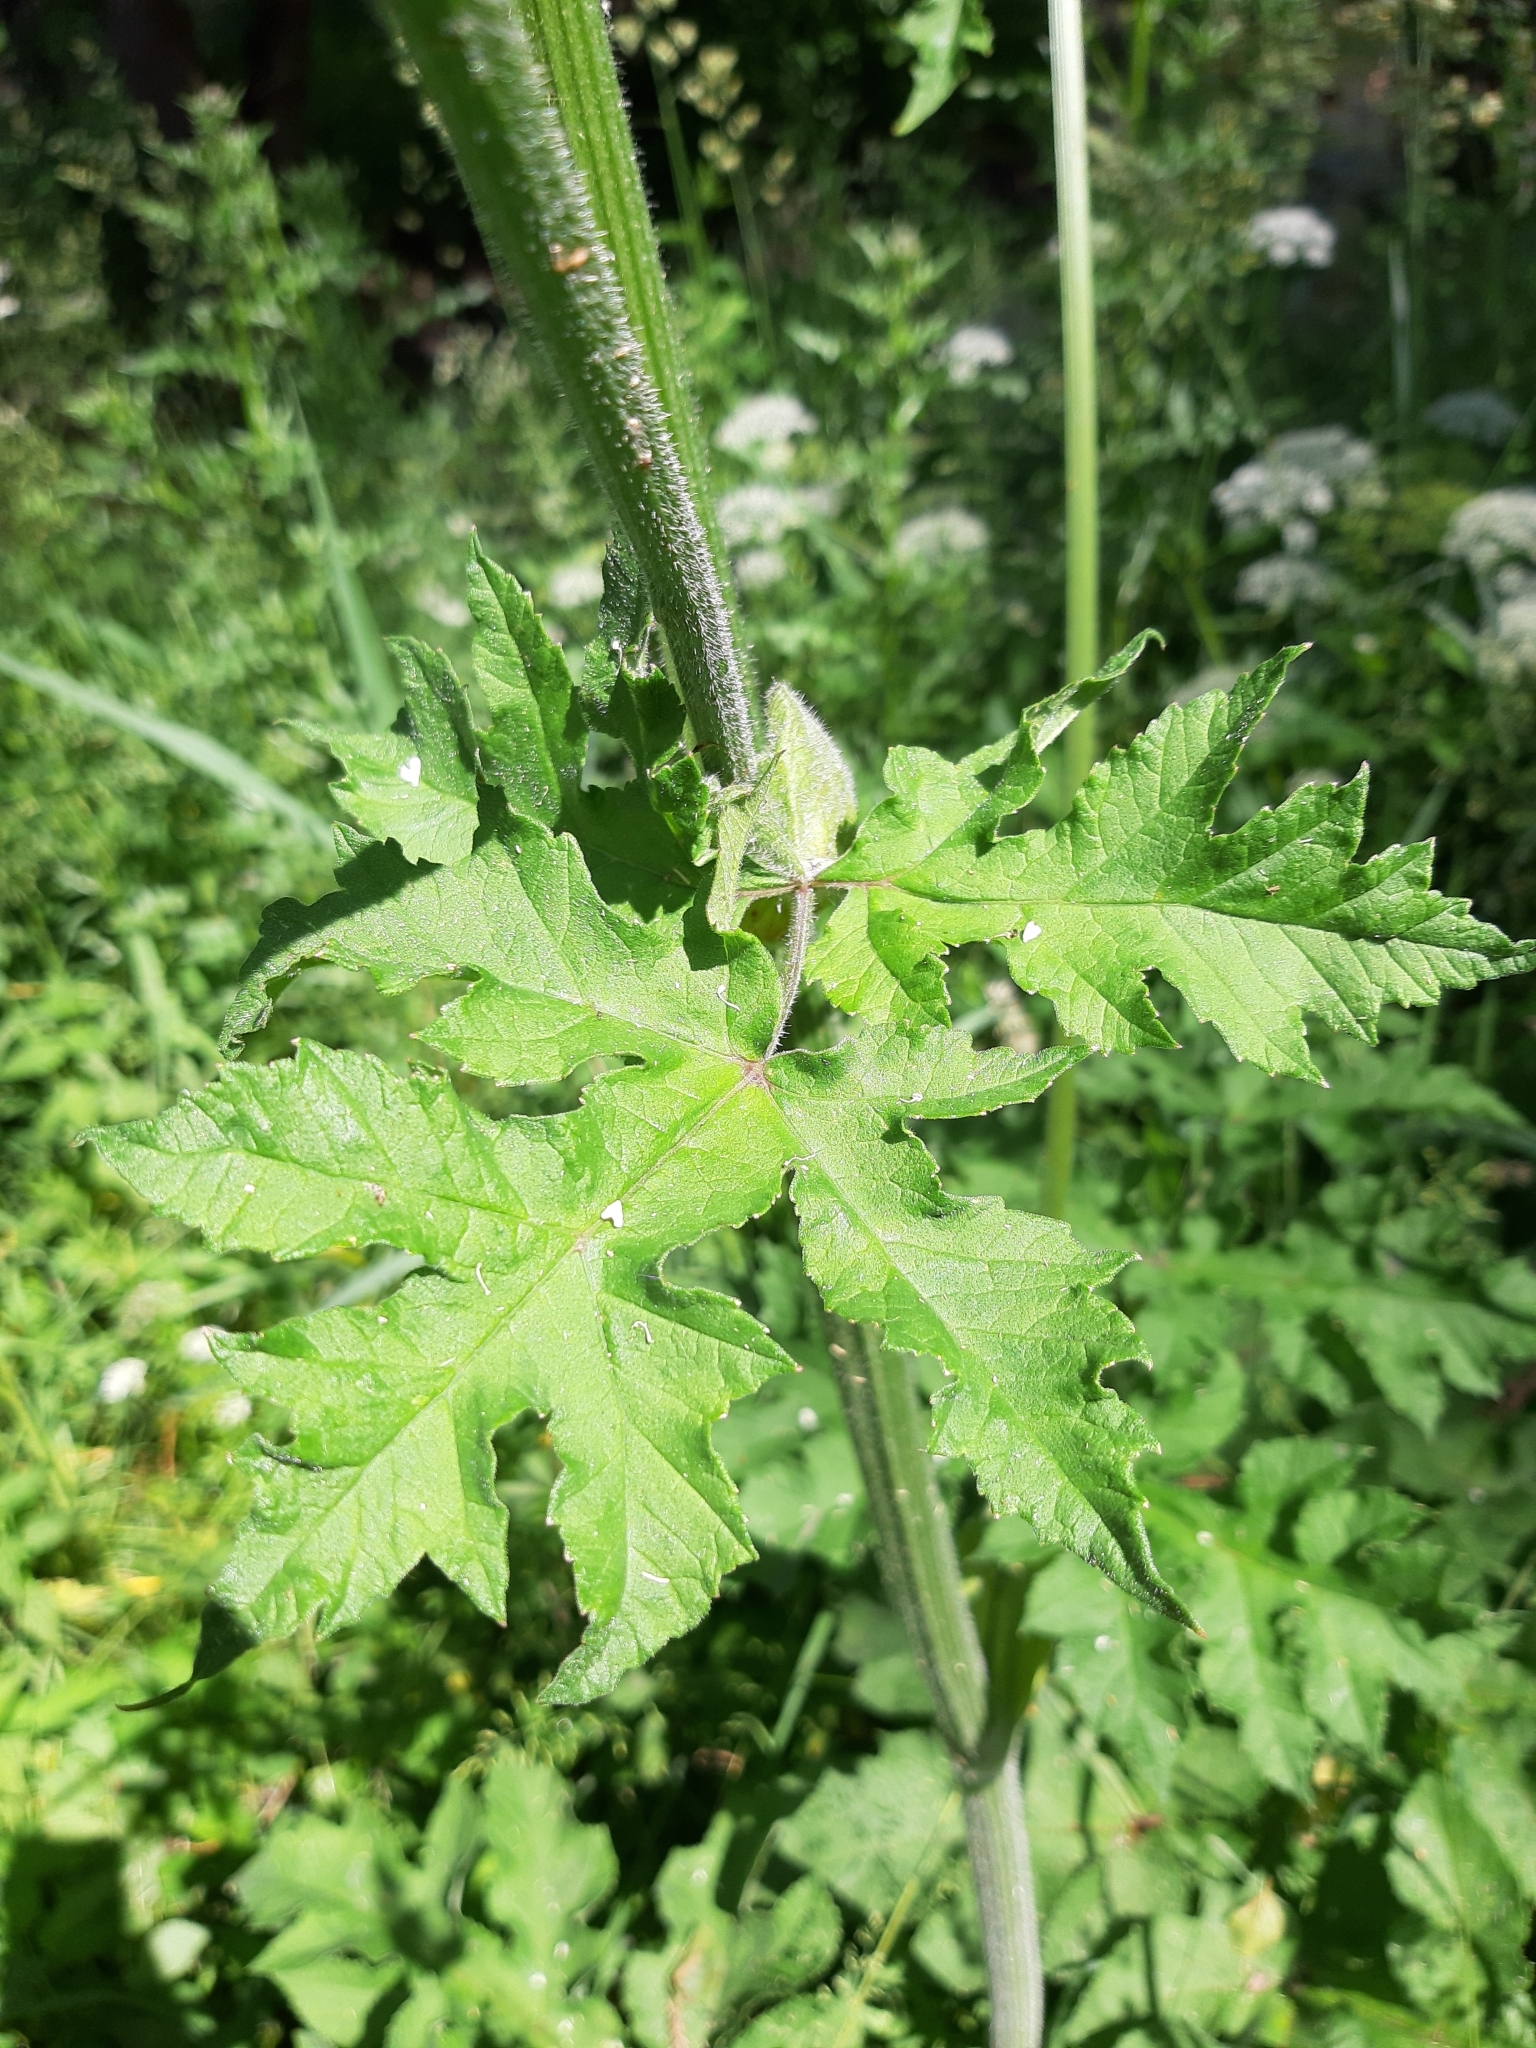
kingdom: Plantae
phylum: Tracheophyta
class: Magnoliopsida
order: Apiales
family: Apiaceae
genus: Heracleum
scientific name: Heracleum sphondylium
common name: Hogweed
